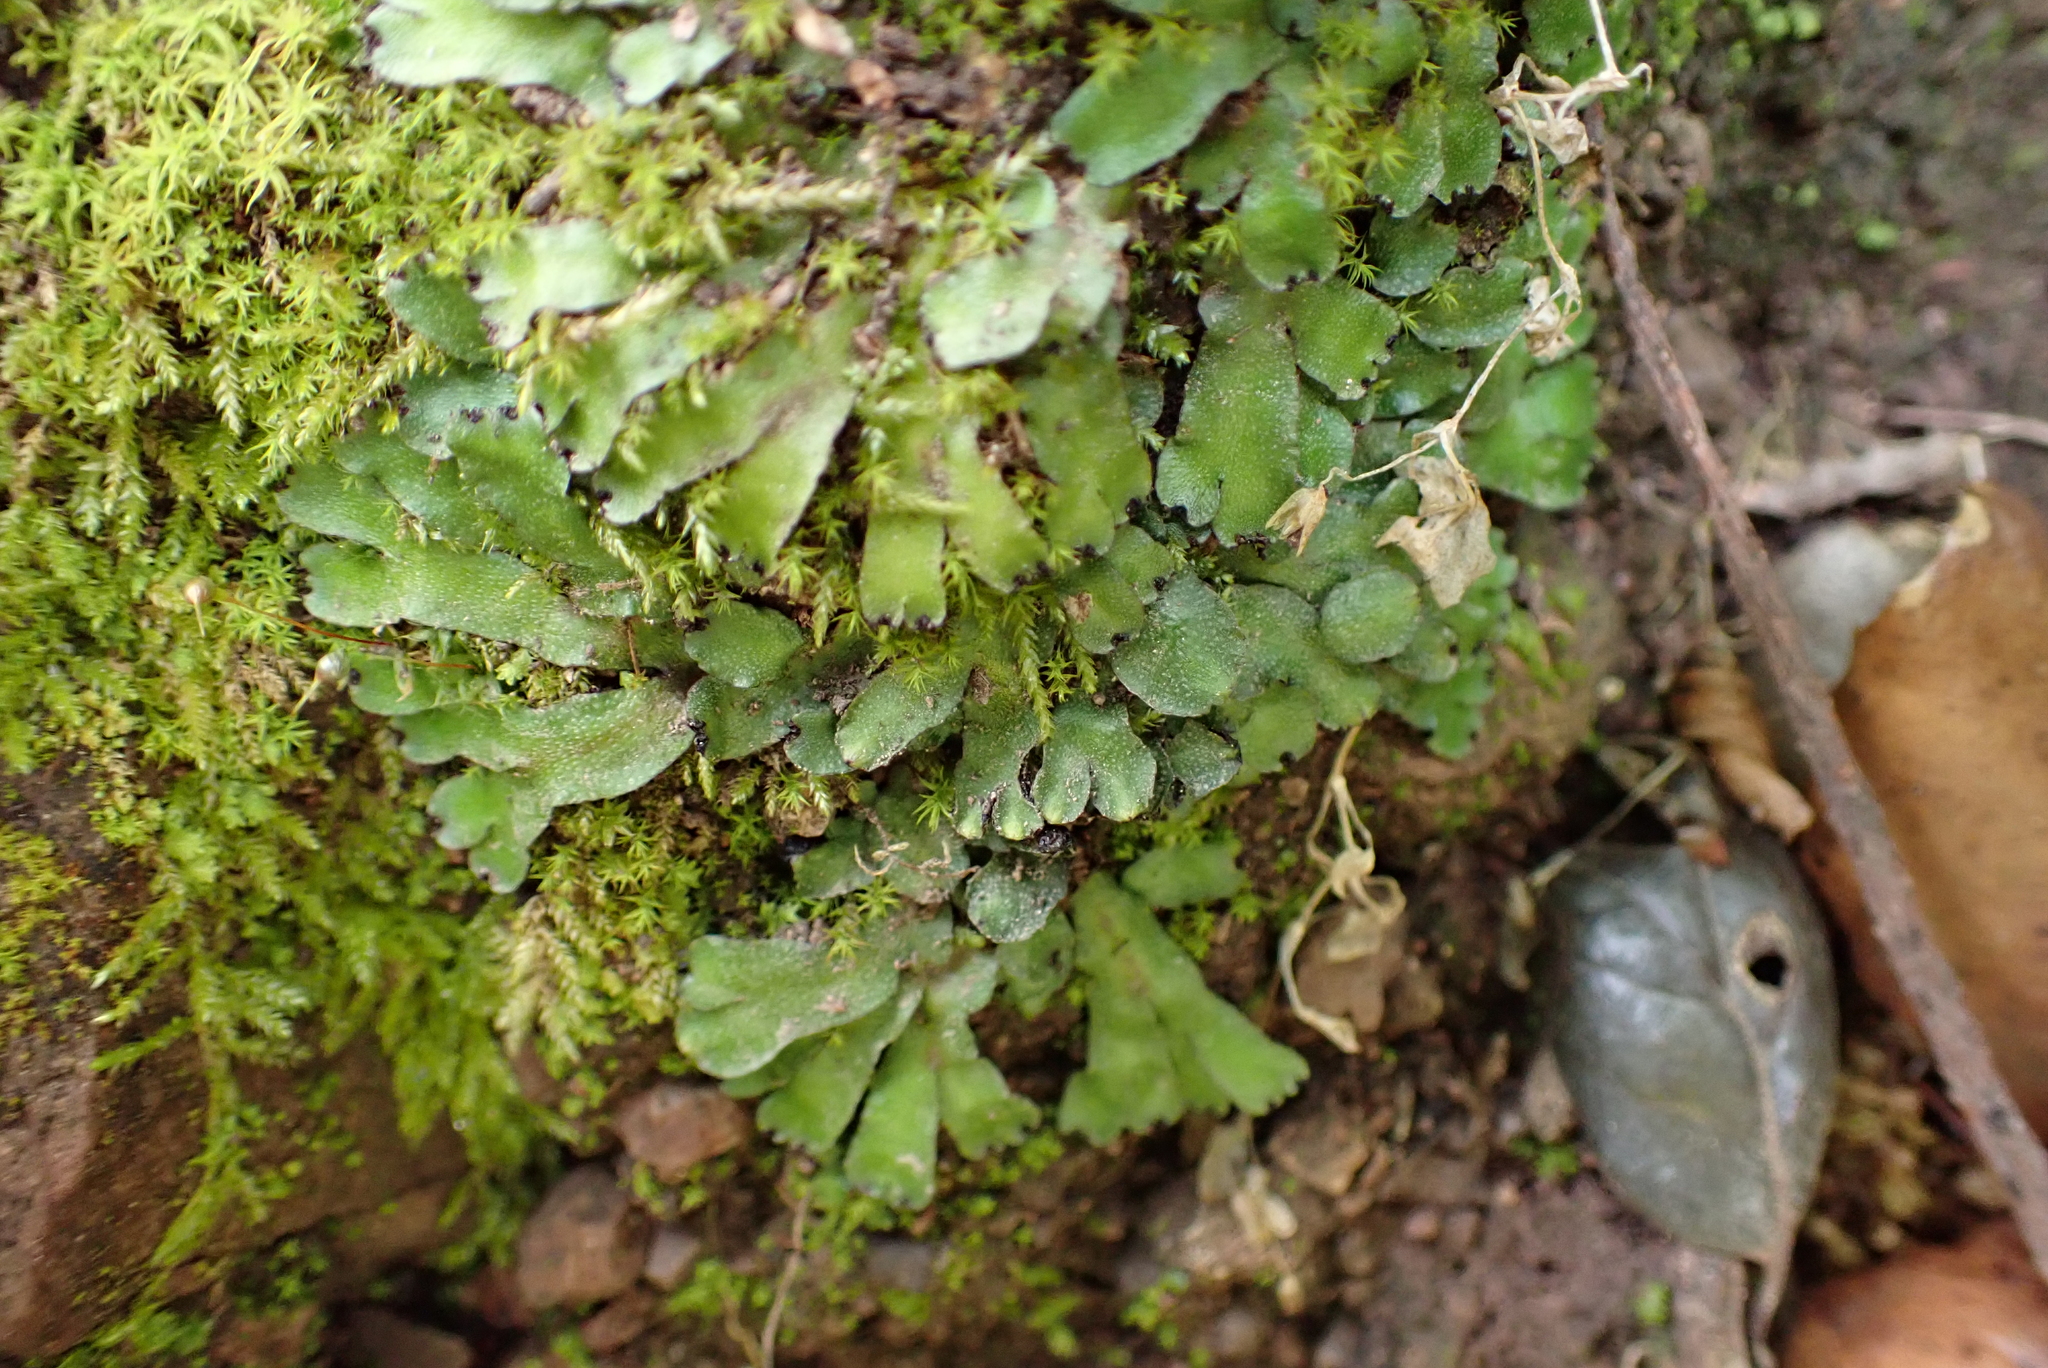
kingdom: Plantae
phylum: Marchantiophyta
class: Marchantiopsida
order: Marchantiales
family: Targioniaceae
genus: Targionia
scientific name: Targionia hypophylla
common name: Orobus-seed liverwort
